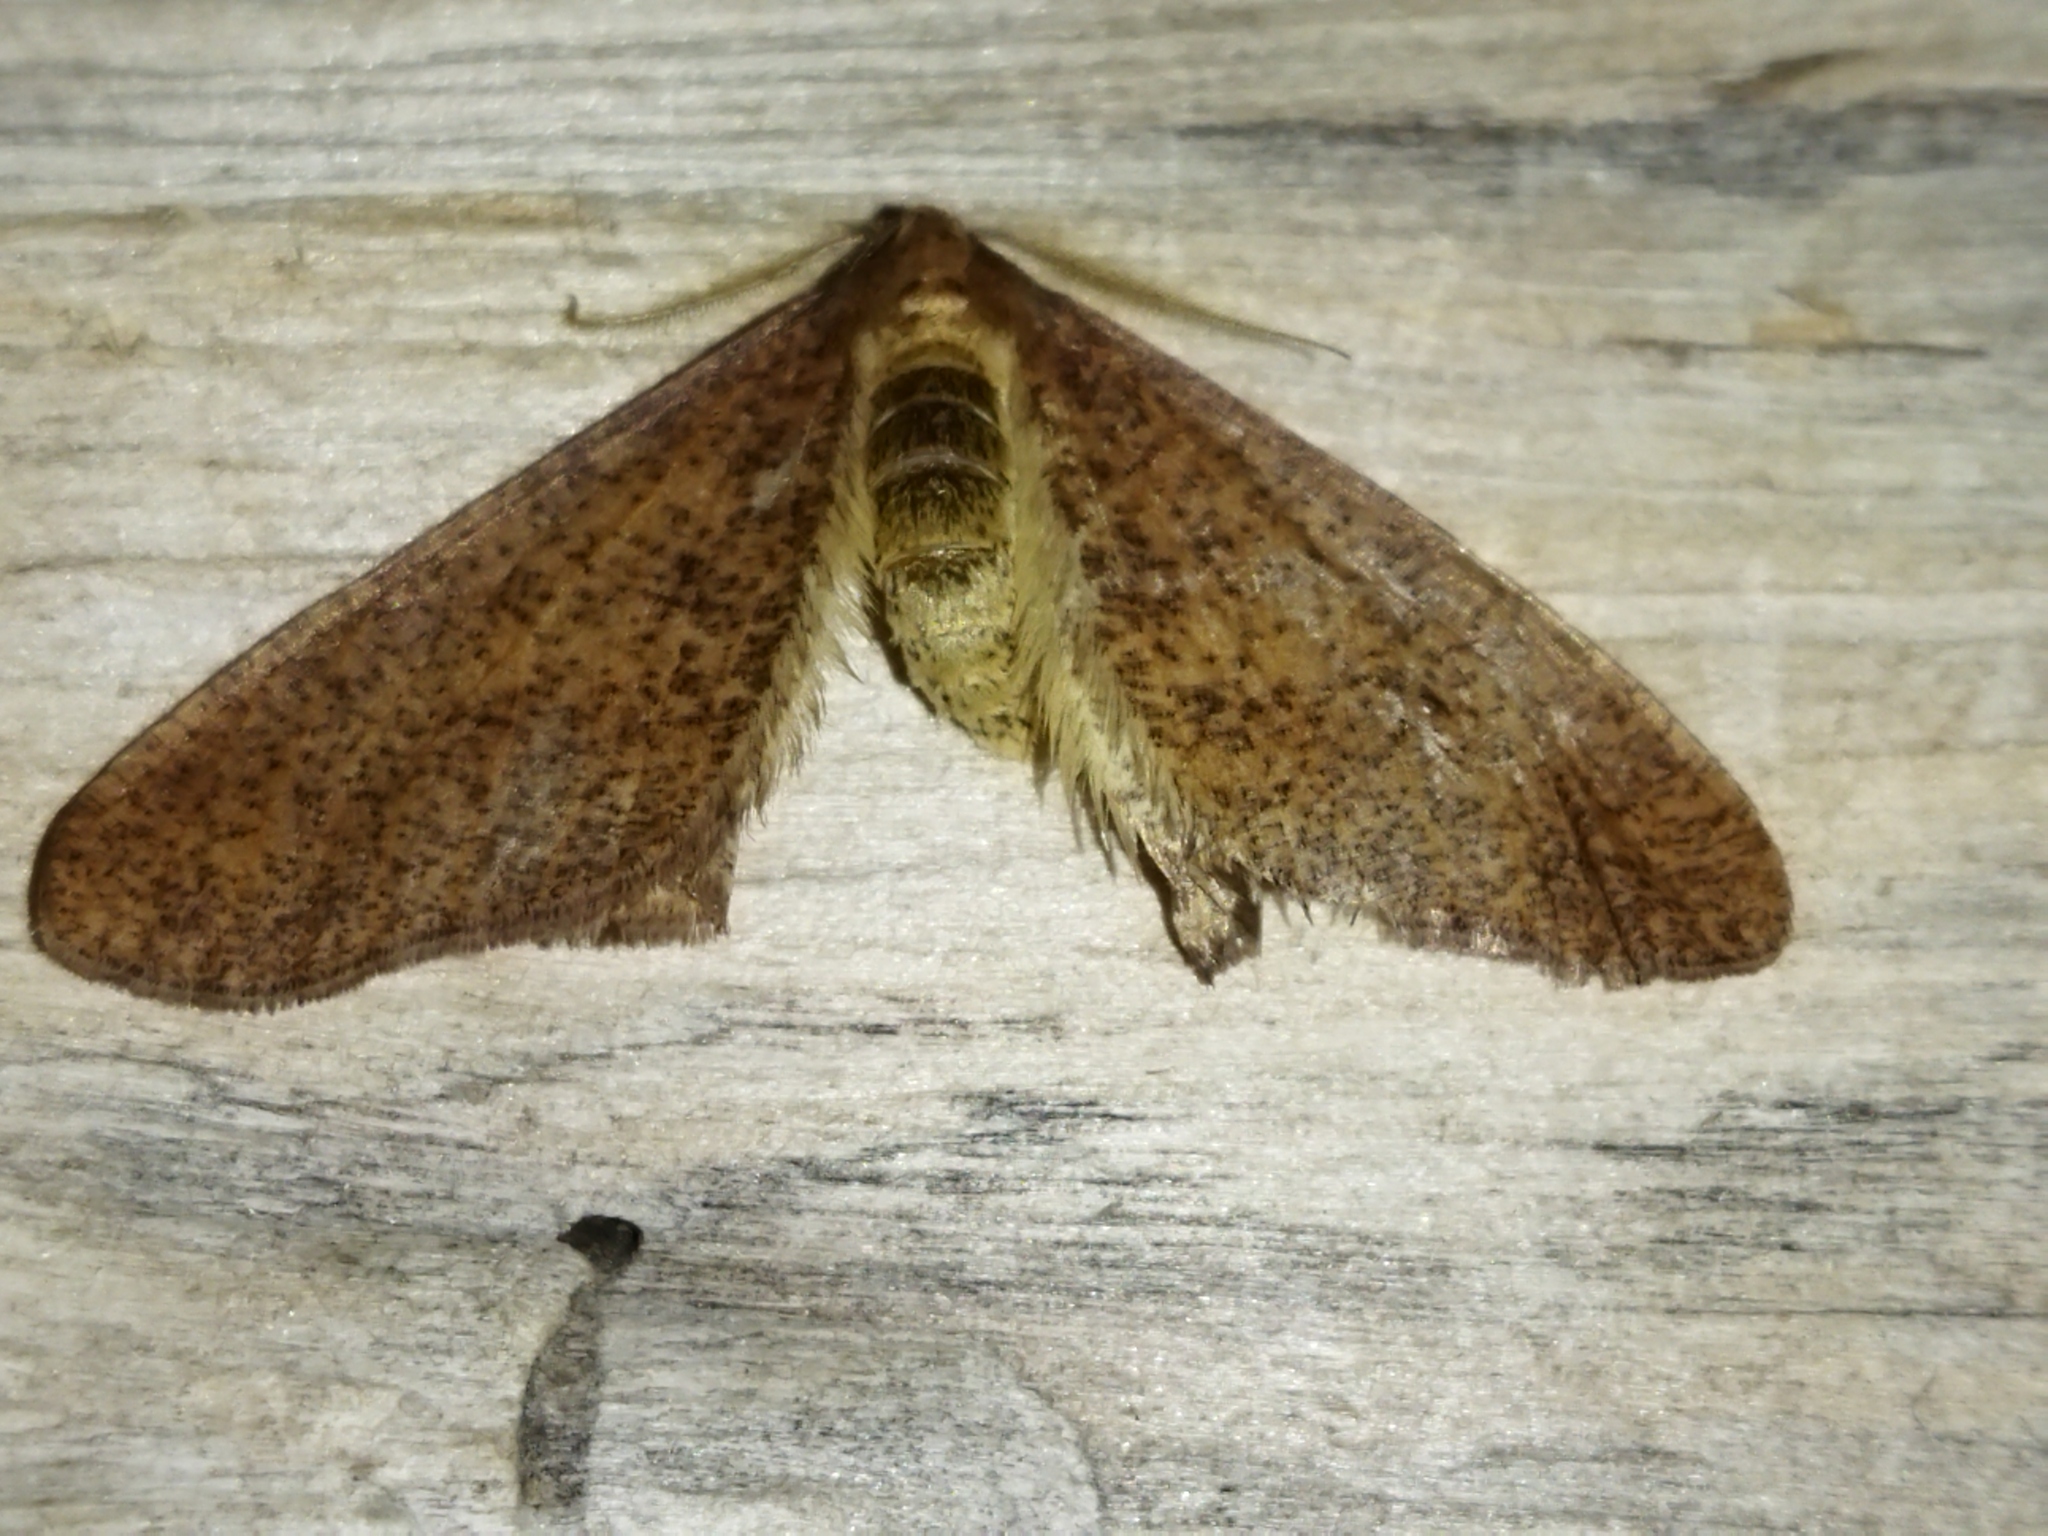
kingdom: Animalia
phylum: Arthropoda
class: Insecta
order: Lepidoptera
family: Geometridae
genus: Erannis
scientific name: Erannis defoliaria
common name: Mottled umber
